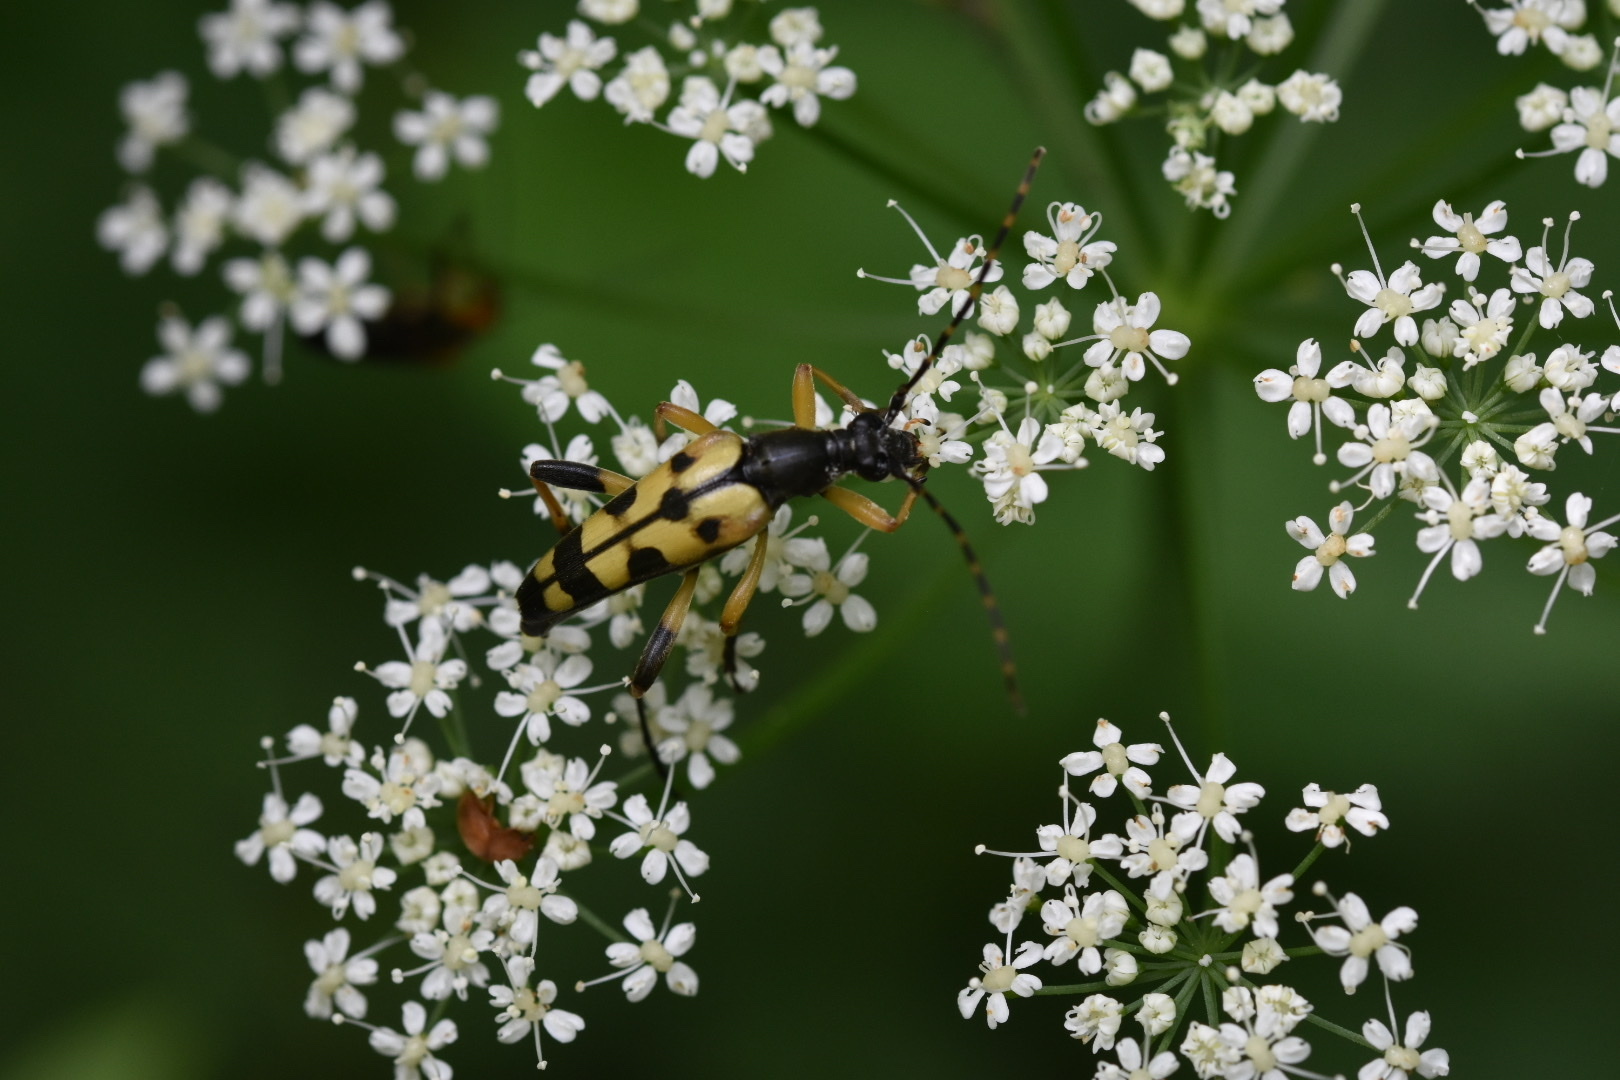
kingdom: Animalia
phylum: Arthropoda
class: Insecta
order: Coleoptera
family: Cerambycidae
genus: Rutpela
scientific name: Rutpela maculata
